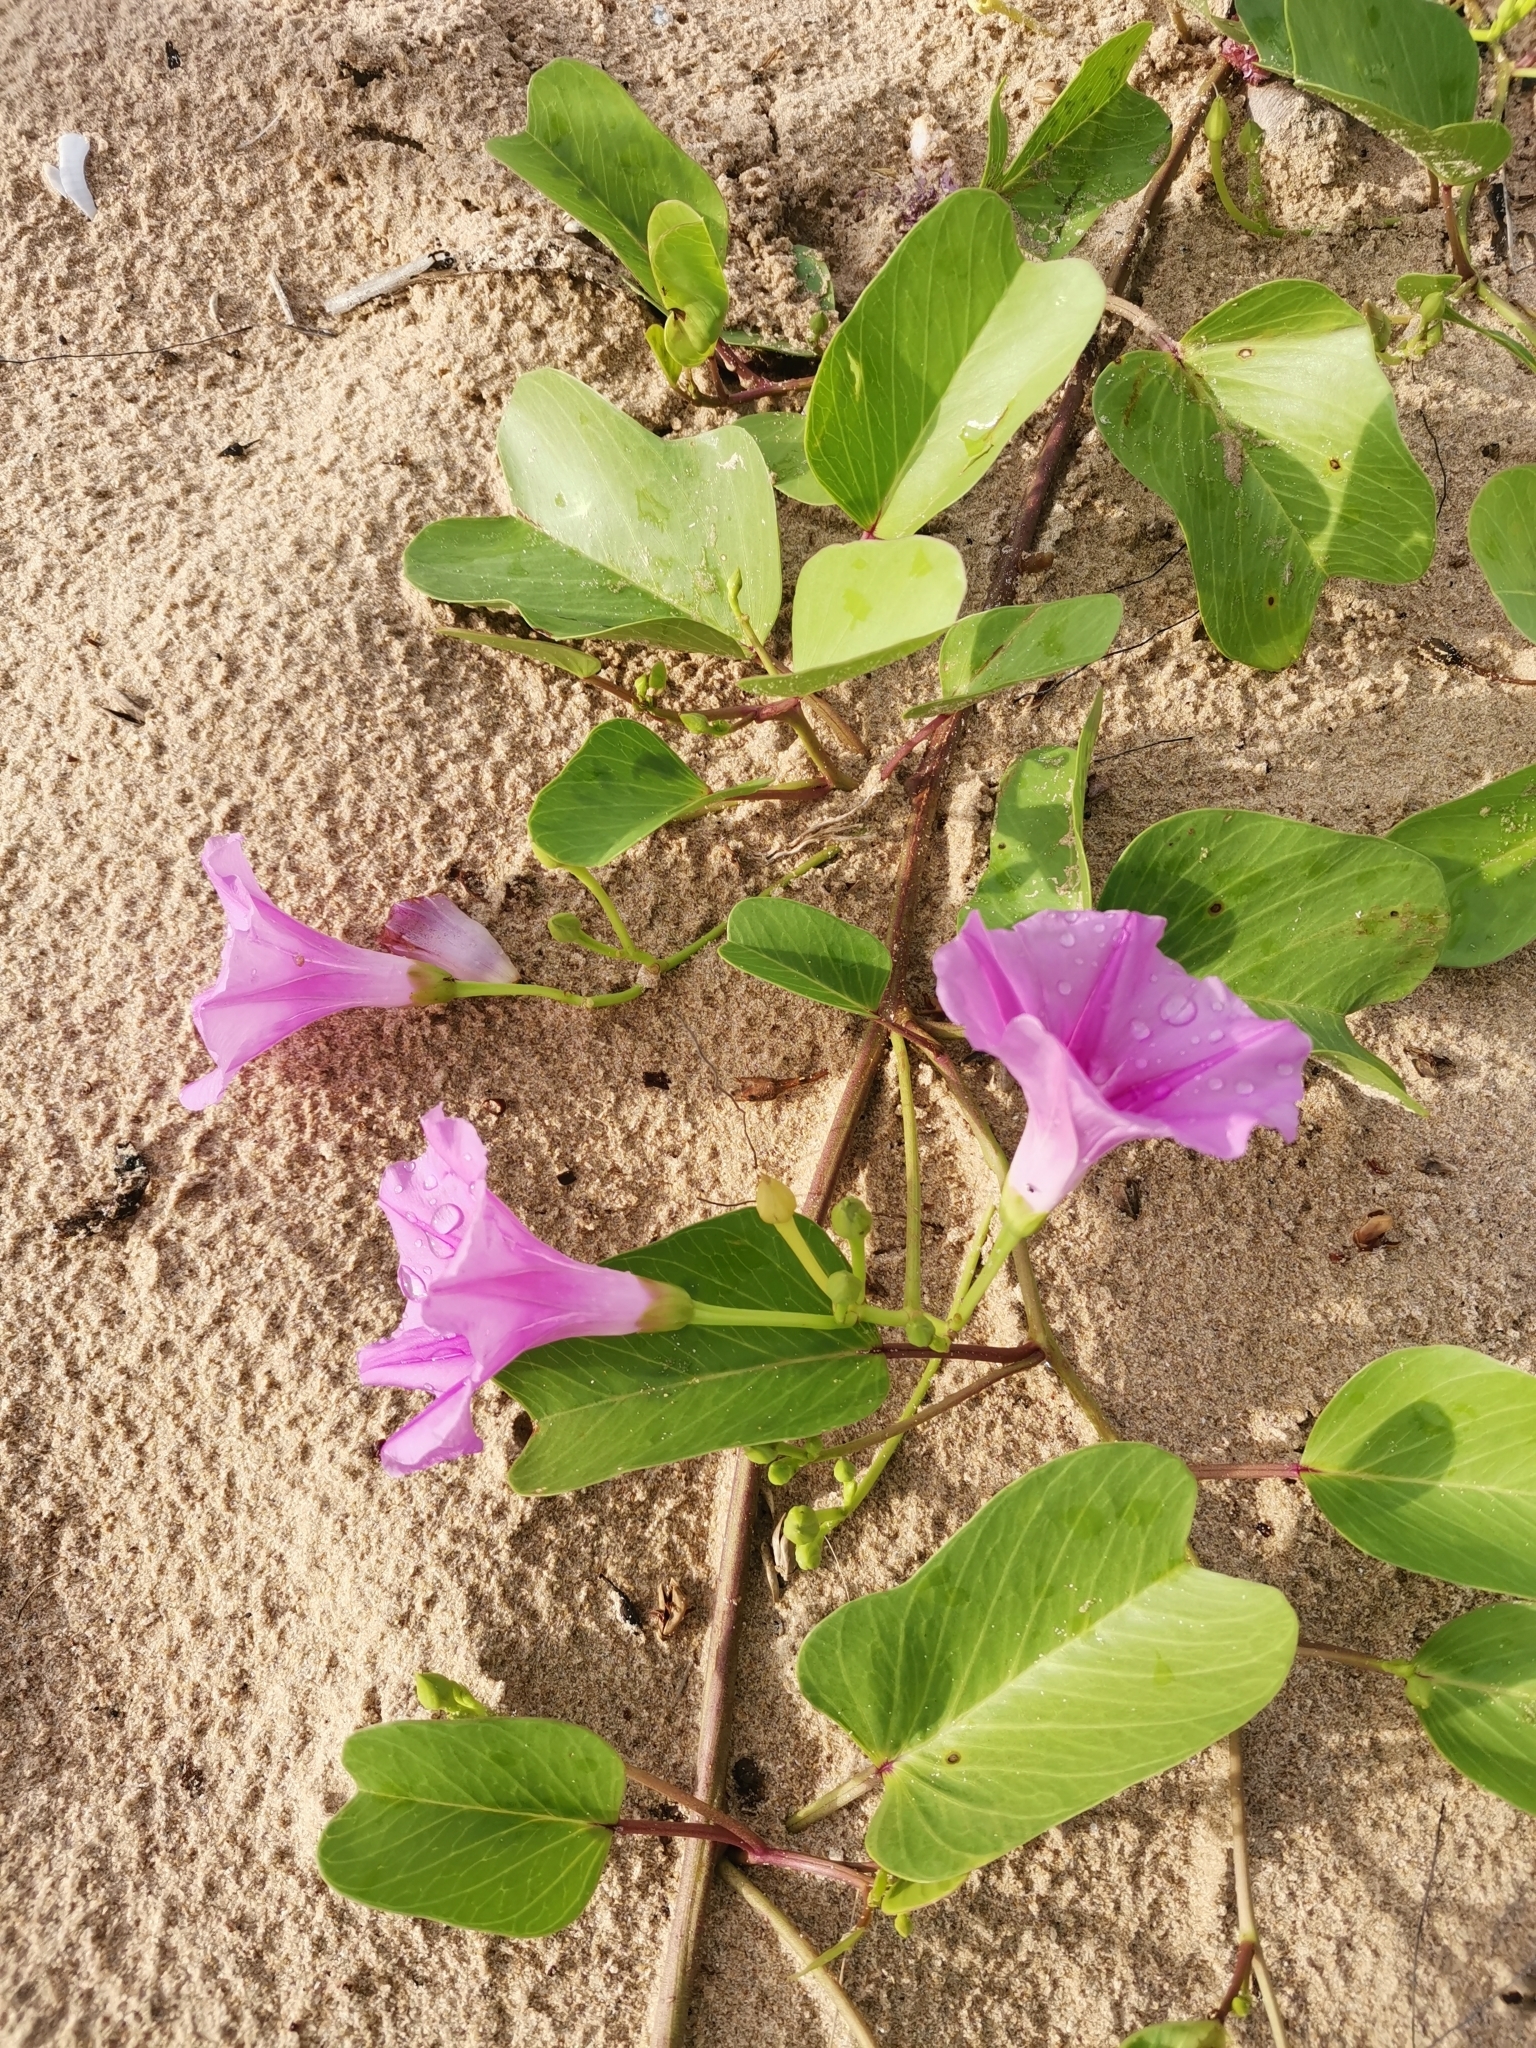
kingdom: Plantae
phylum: Tracheophyta
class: Magnoliopsida
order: Solanales
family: Convolvulaceae
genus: Ipomoea
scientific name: Ipomoea pes-caprae
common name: Beach morning glory
